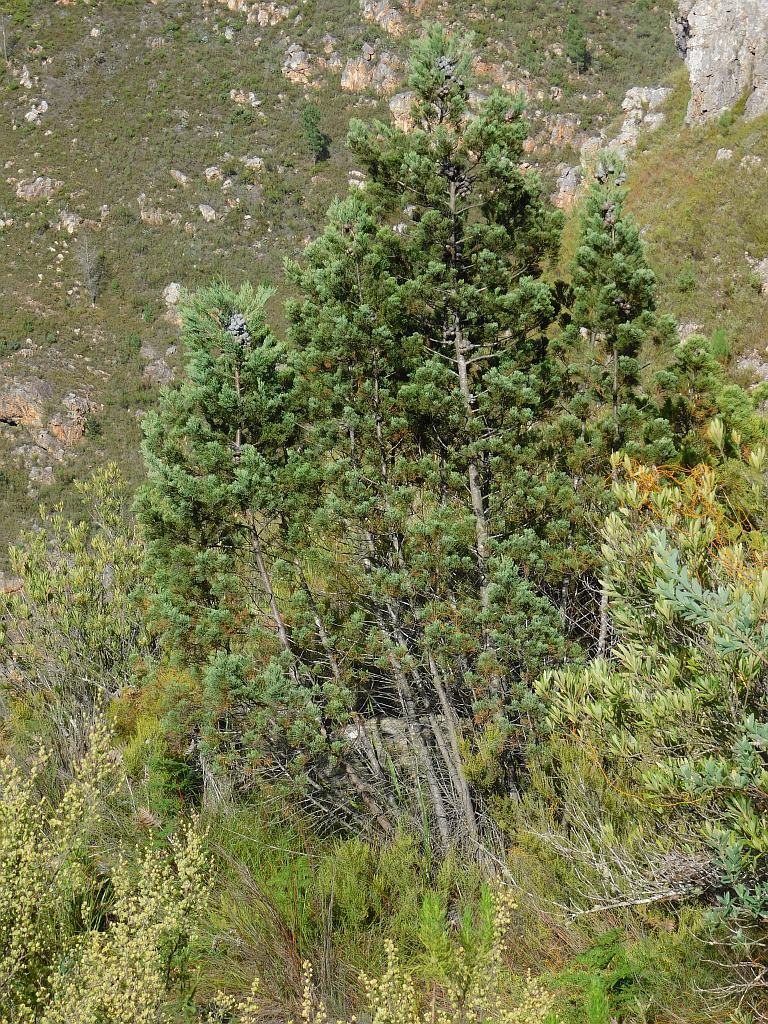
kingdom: Plantae
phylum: Tracheophyta
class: Pinopsida
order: Pinales
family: Cupressaceae
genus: Widdringtonia
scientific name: Widdringtonia nodiflora
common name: Cape cypress
